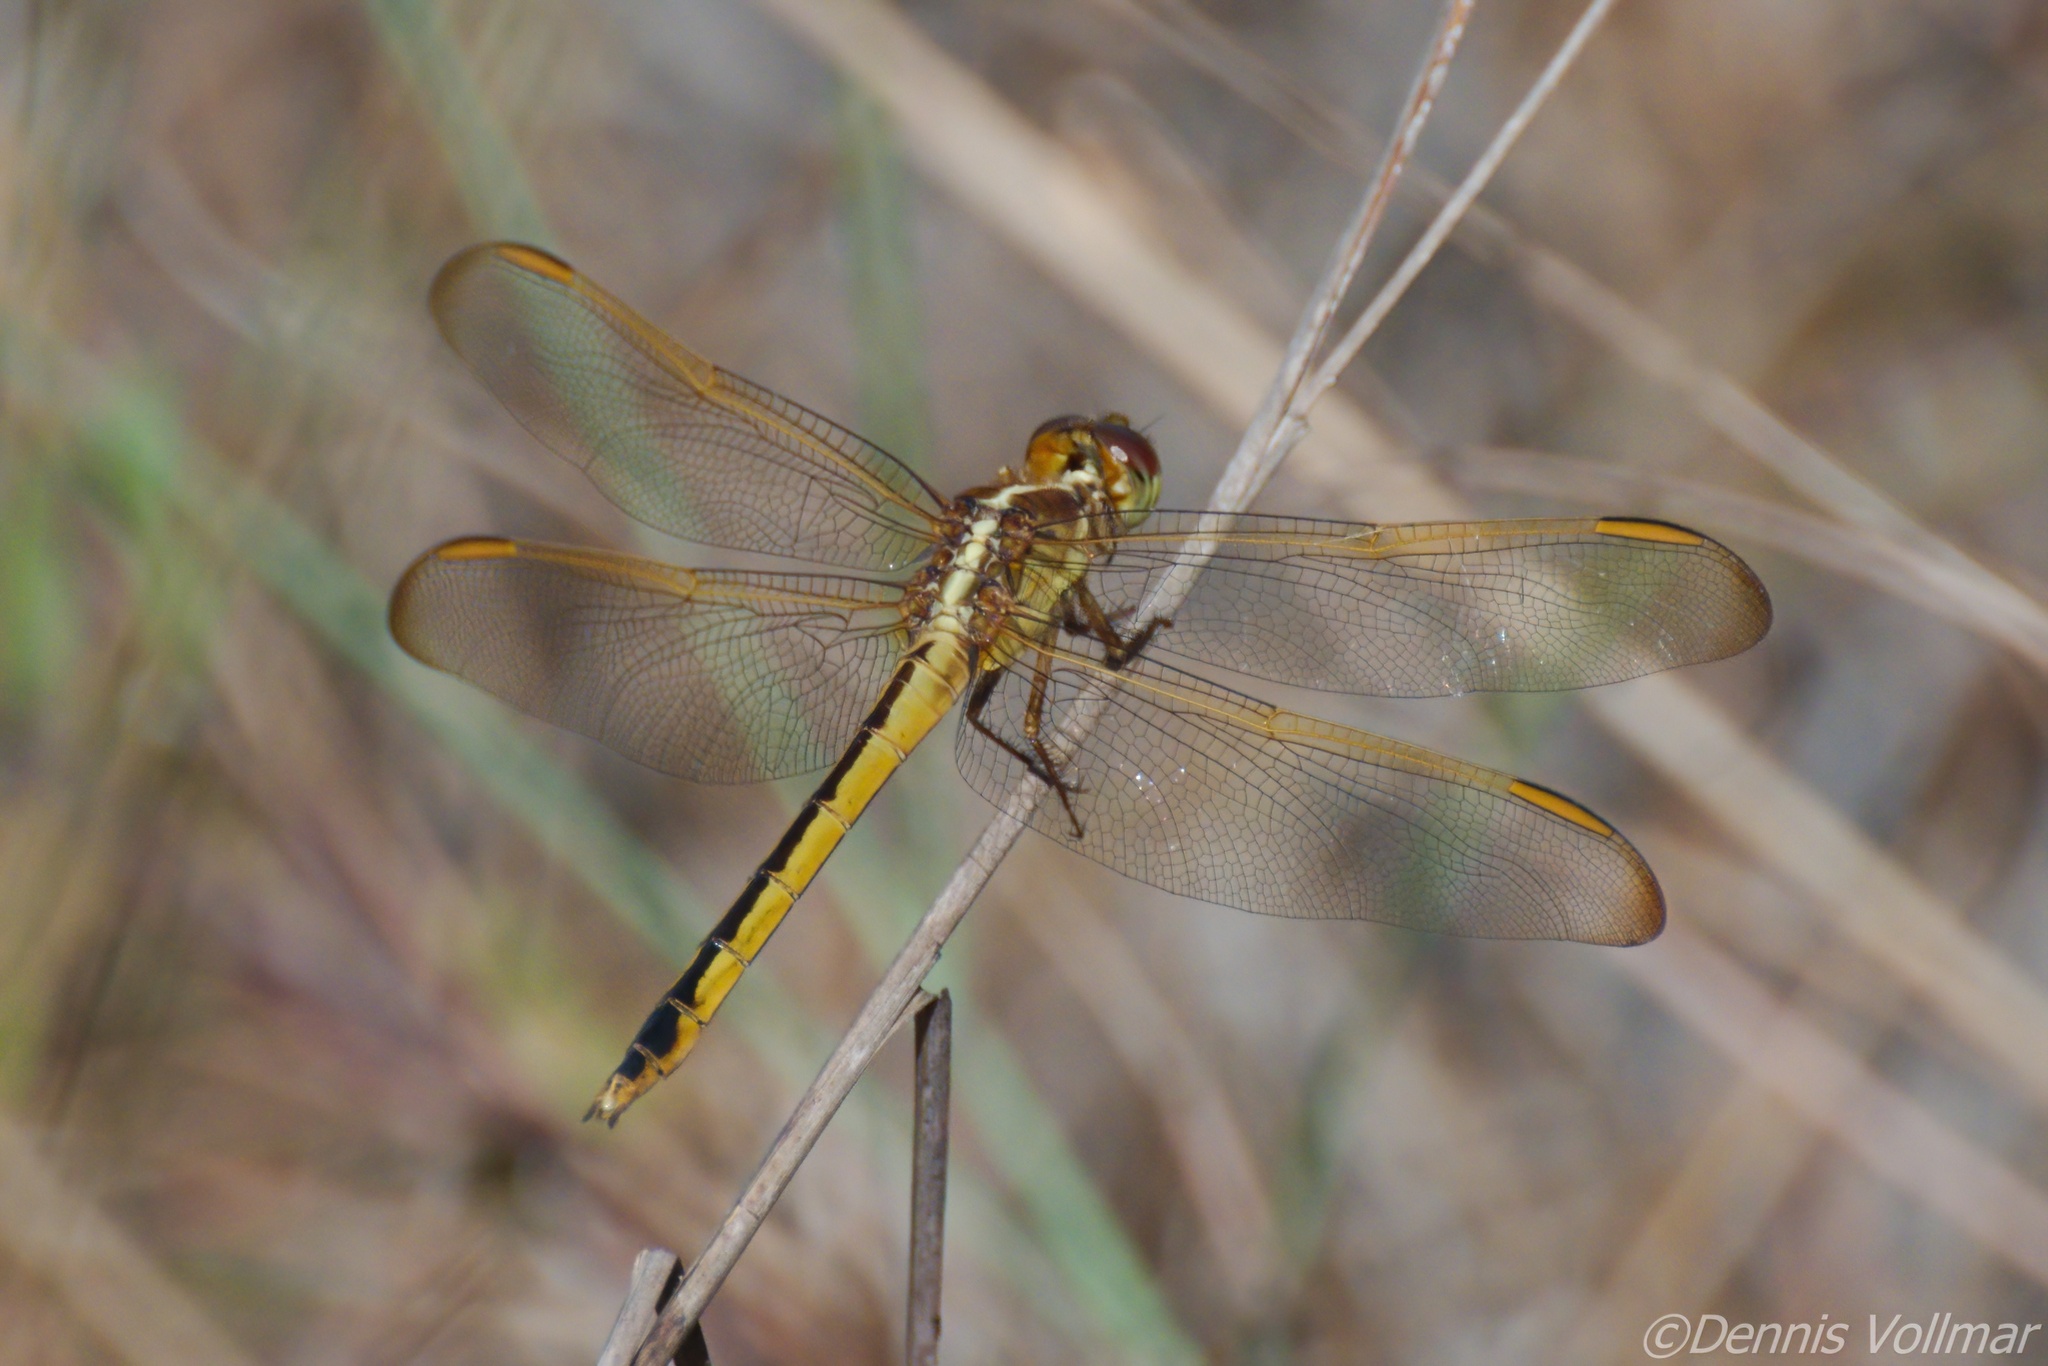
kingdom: Animalia
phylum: Arthropoda
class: Insecta
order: Odonata
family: Libellulidae
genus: Libellula
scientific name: Libellula needhami
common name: Needham's skimmer
